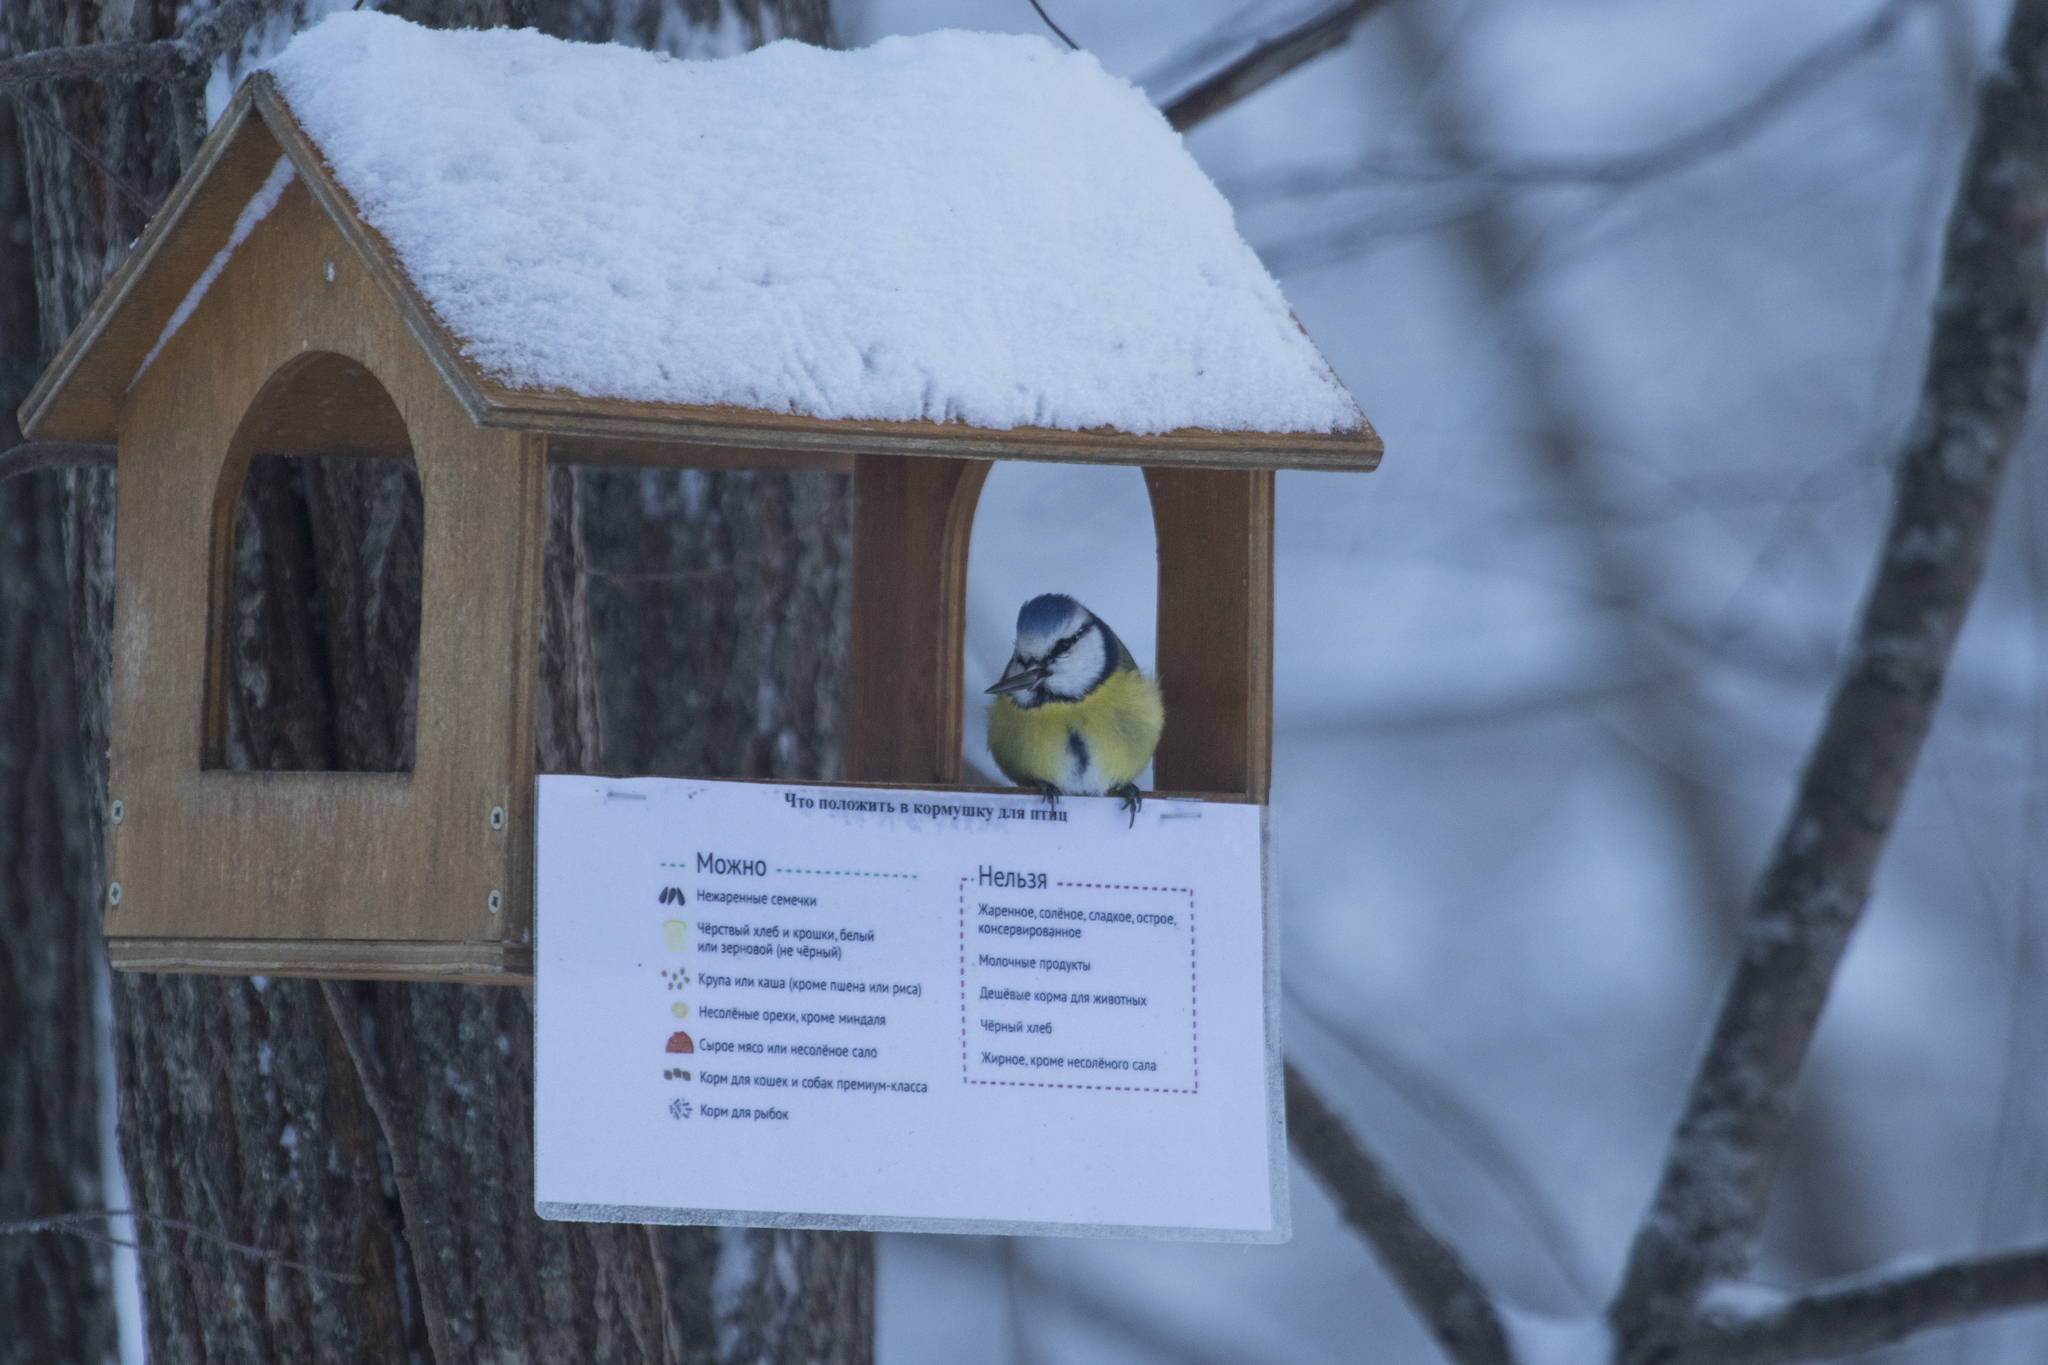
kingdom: Animalia
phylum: Chordata
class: Aves
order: Passeriformes
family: Paridae
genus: Cyanistes
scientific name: Cyanistes caeruleus
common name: Eurasian blue tit
